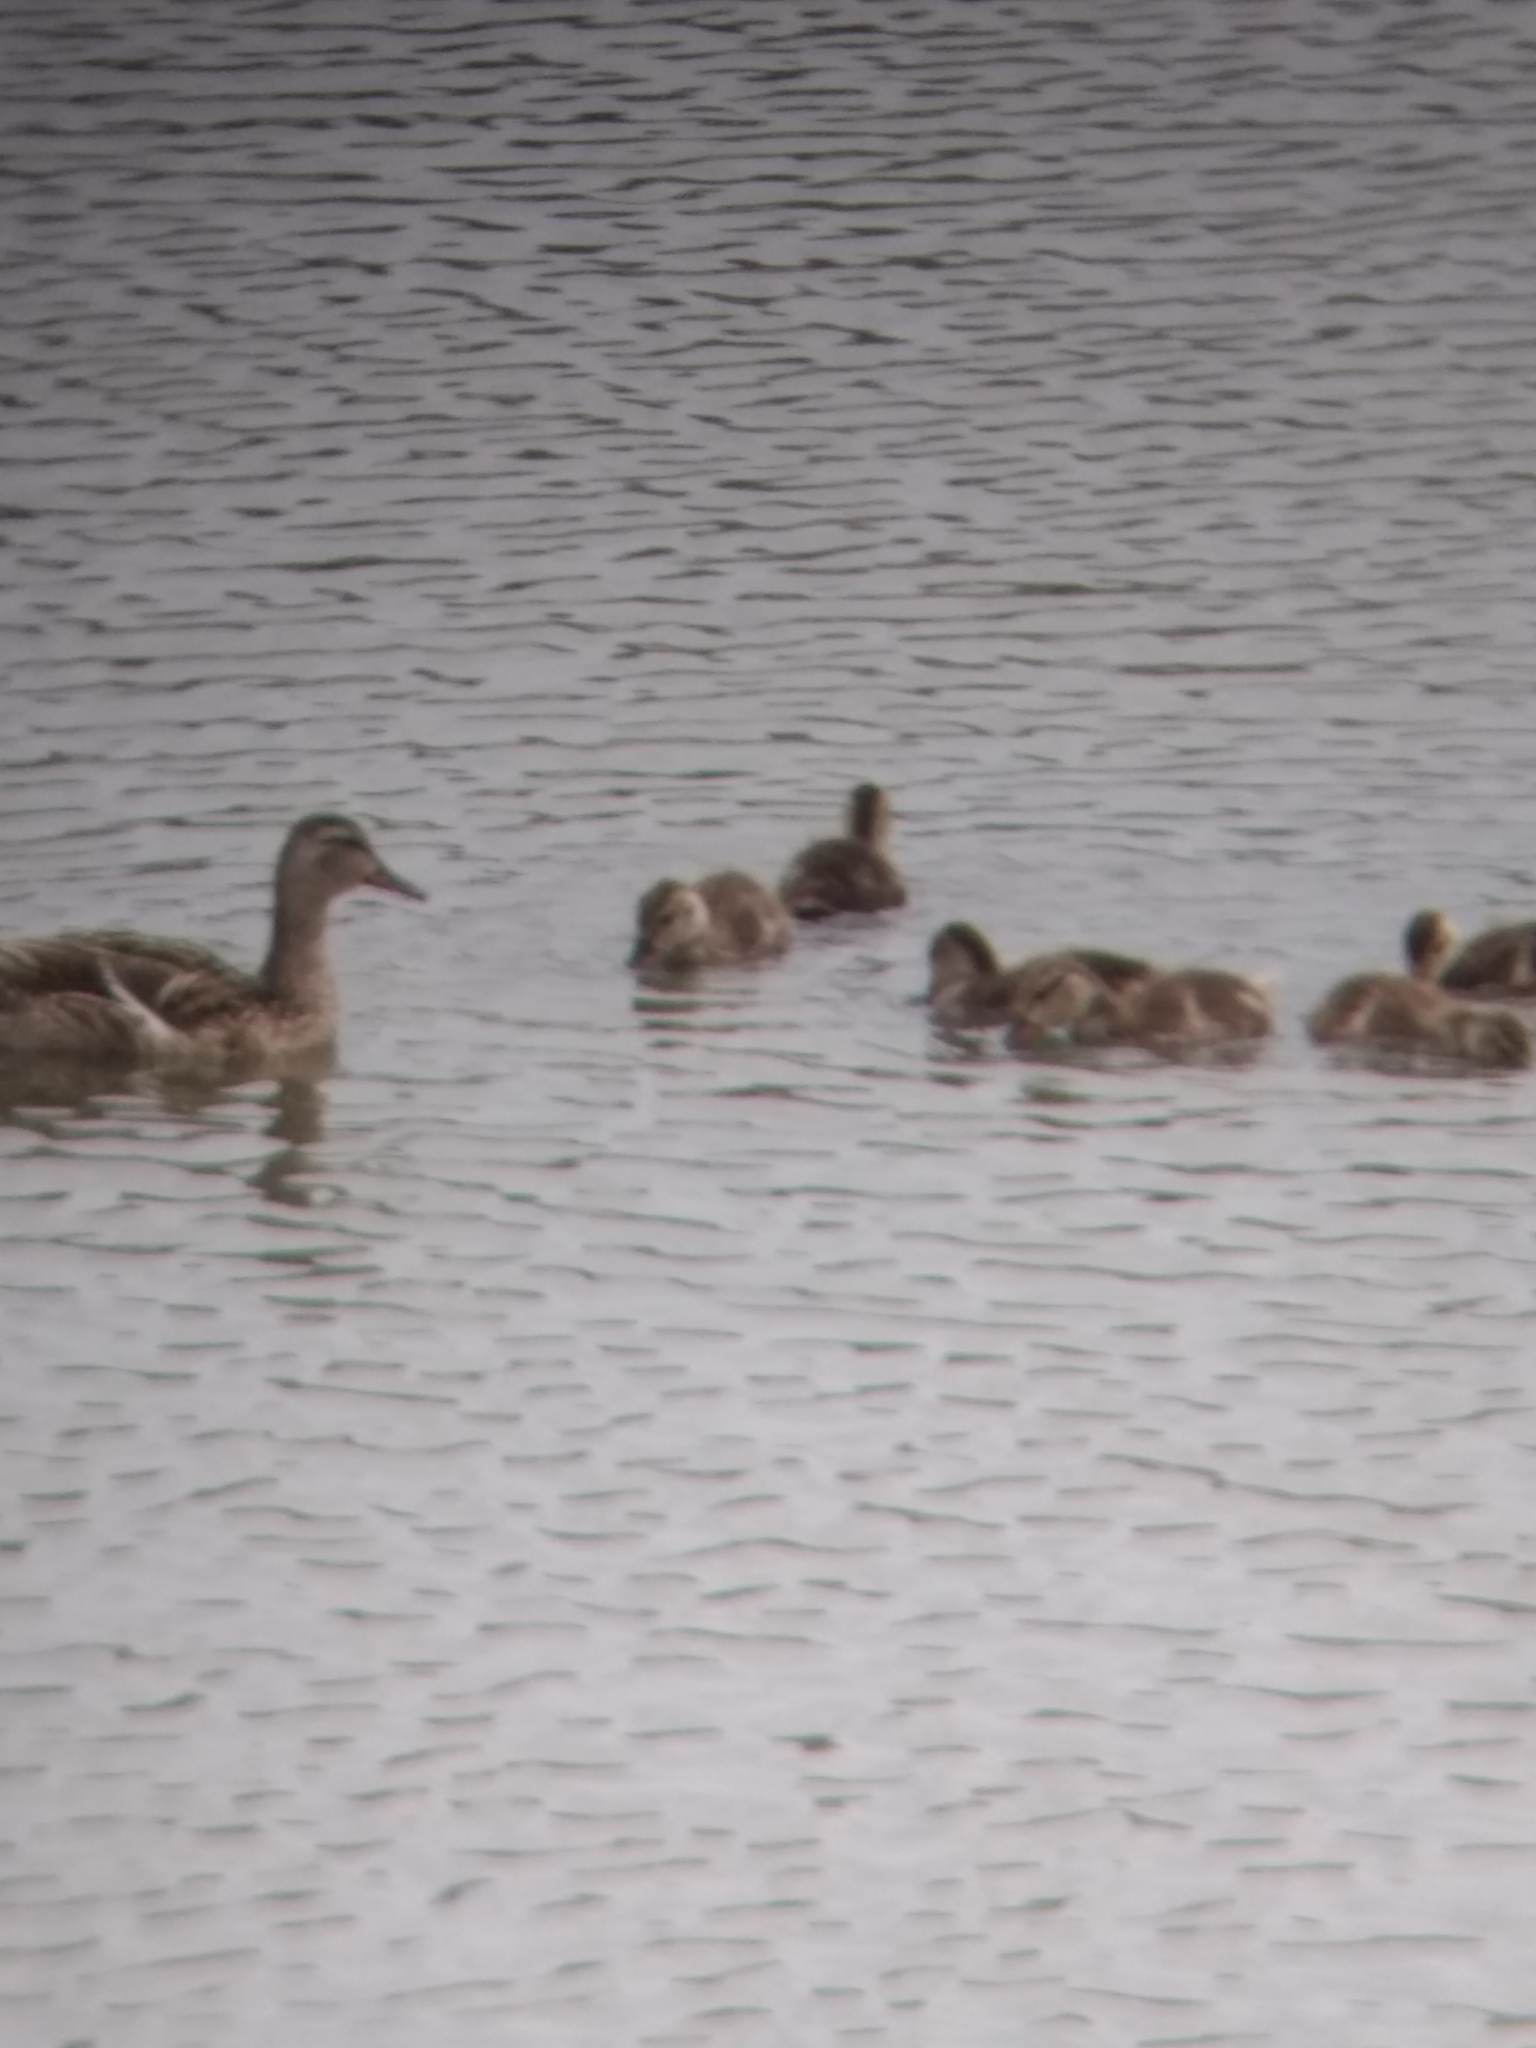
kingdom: Animalia
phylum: Chordata
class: Aves
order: Anseriformes
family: Anatidae
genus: Anas
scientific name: Anas platyrhynchos
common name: Mallard
